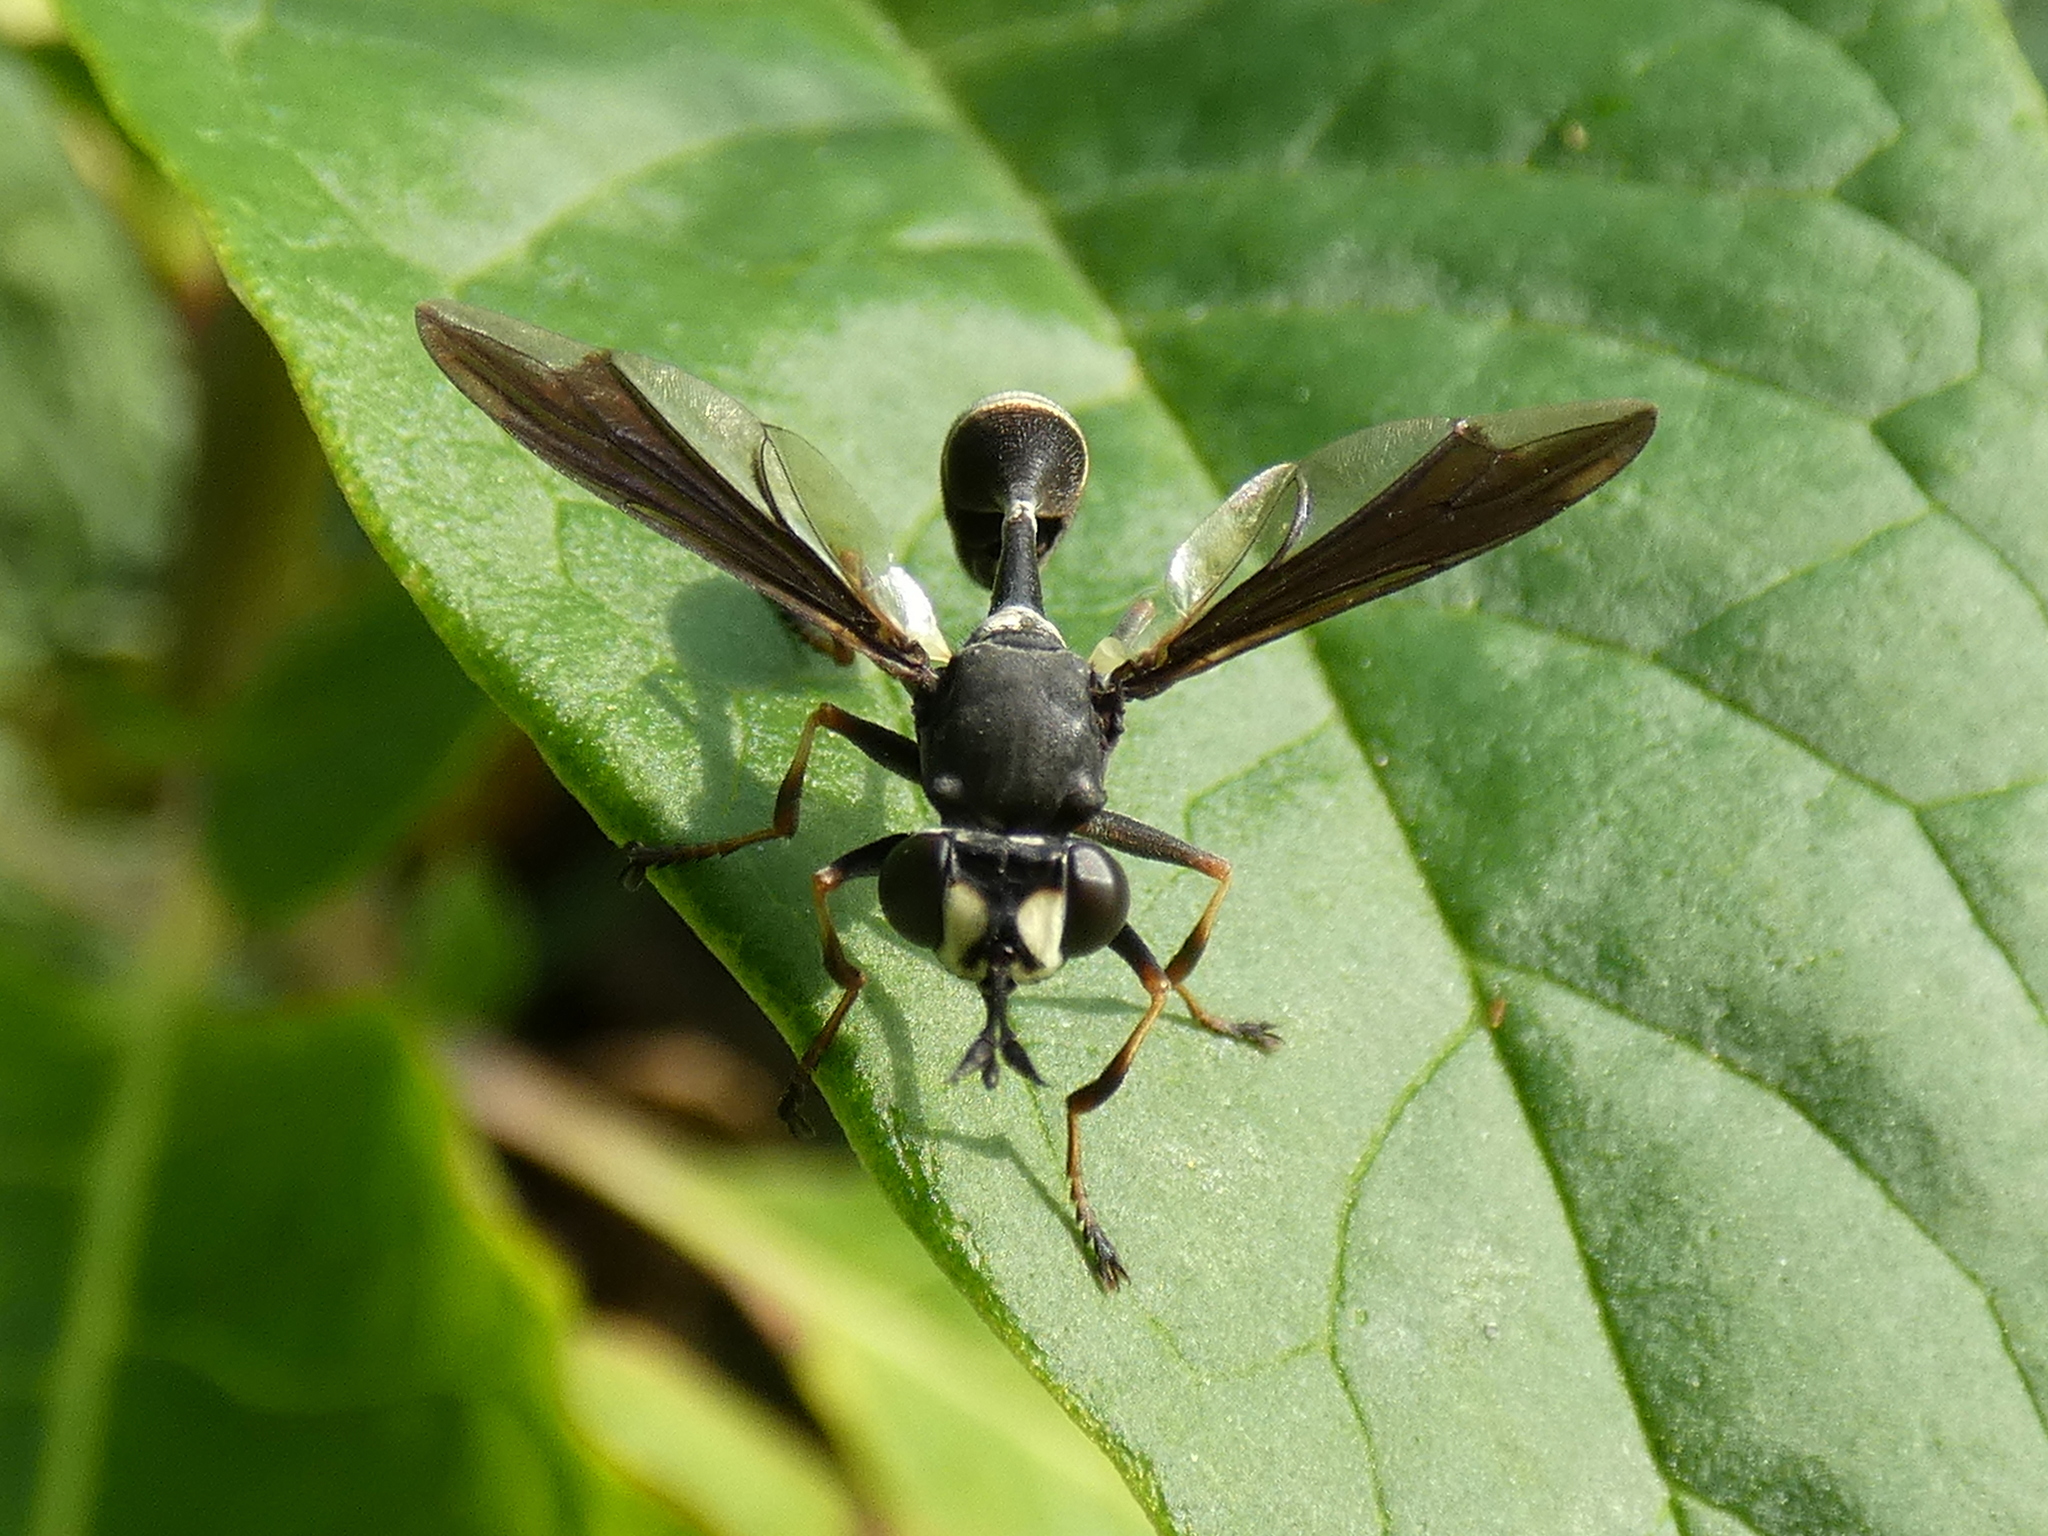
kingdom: Animalia
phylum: Arthropoda
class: Insecta
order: Diptera
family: Conopidae
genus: Physocephala
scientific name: Physocephala tibialis
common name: Common eastern physocephala
